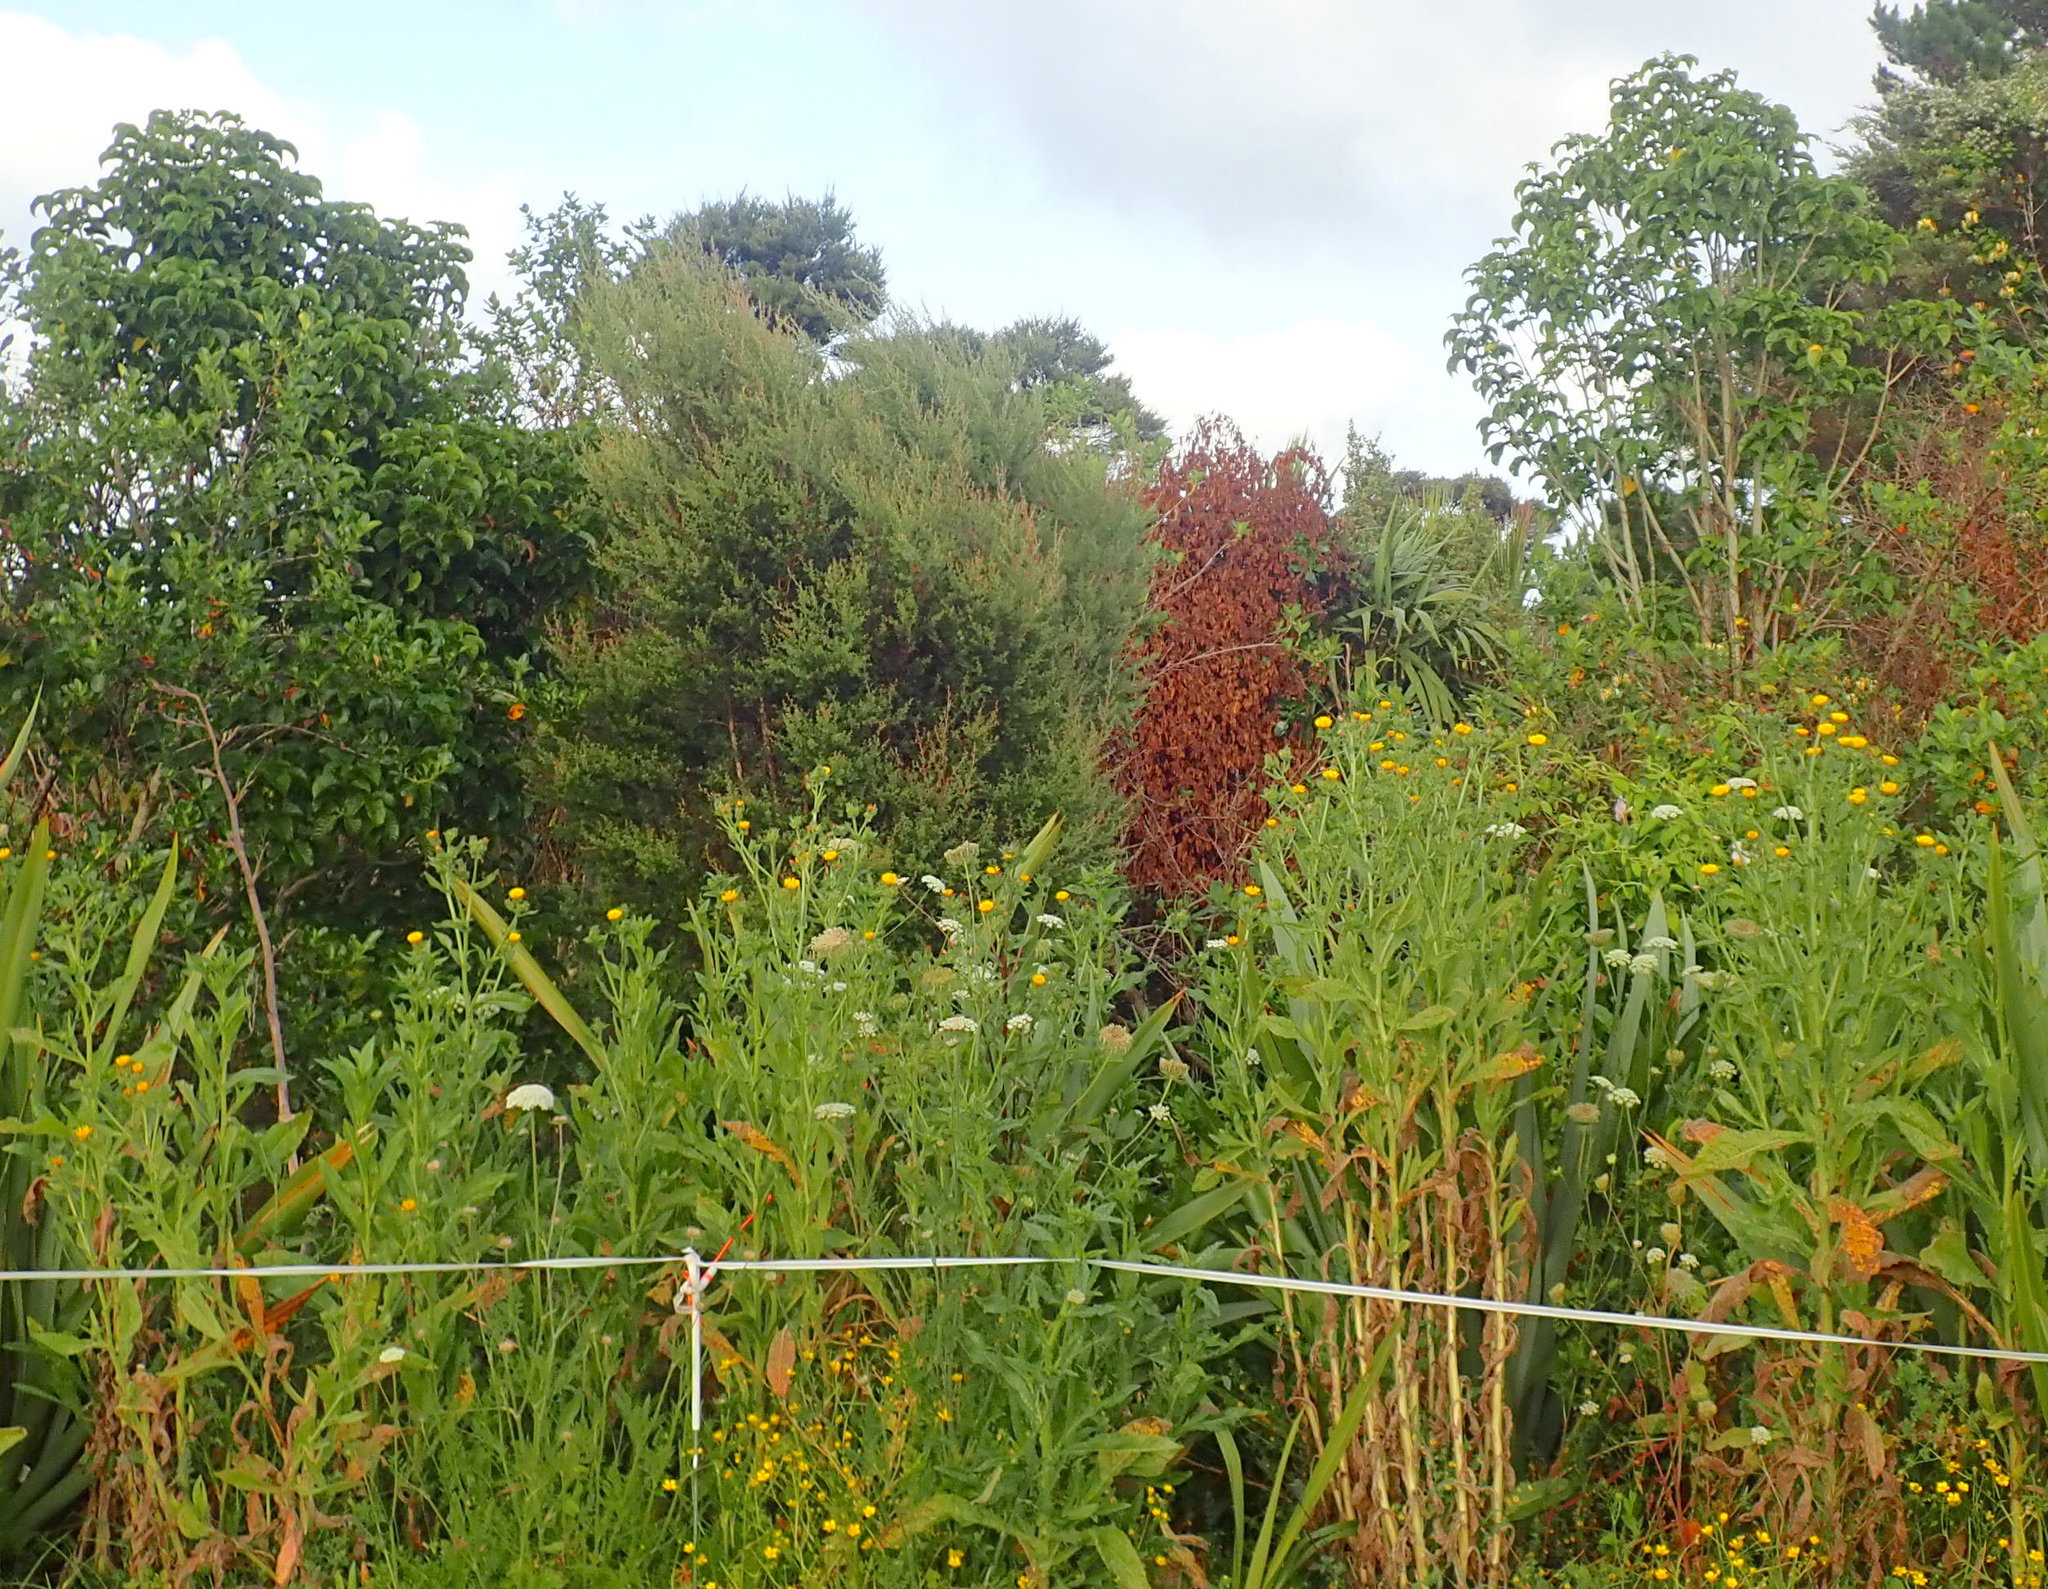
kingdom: Plantae
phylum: Tracheophyta
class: Magnoliopsida
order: Myrtales
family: Myrtaceae
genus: Leptospermum
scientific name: Leptospermum scoparium
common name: Broom tea-tree
